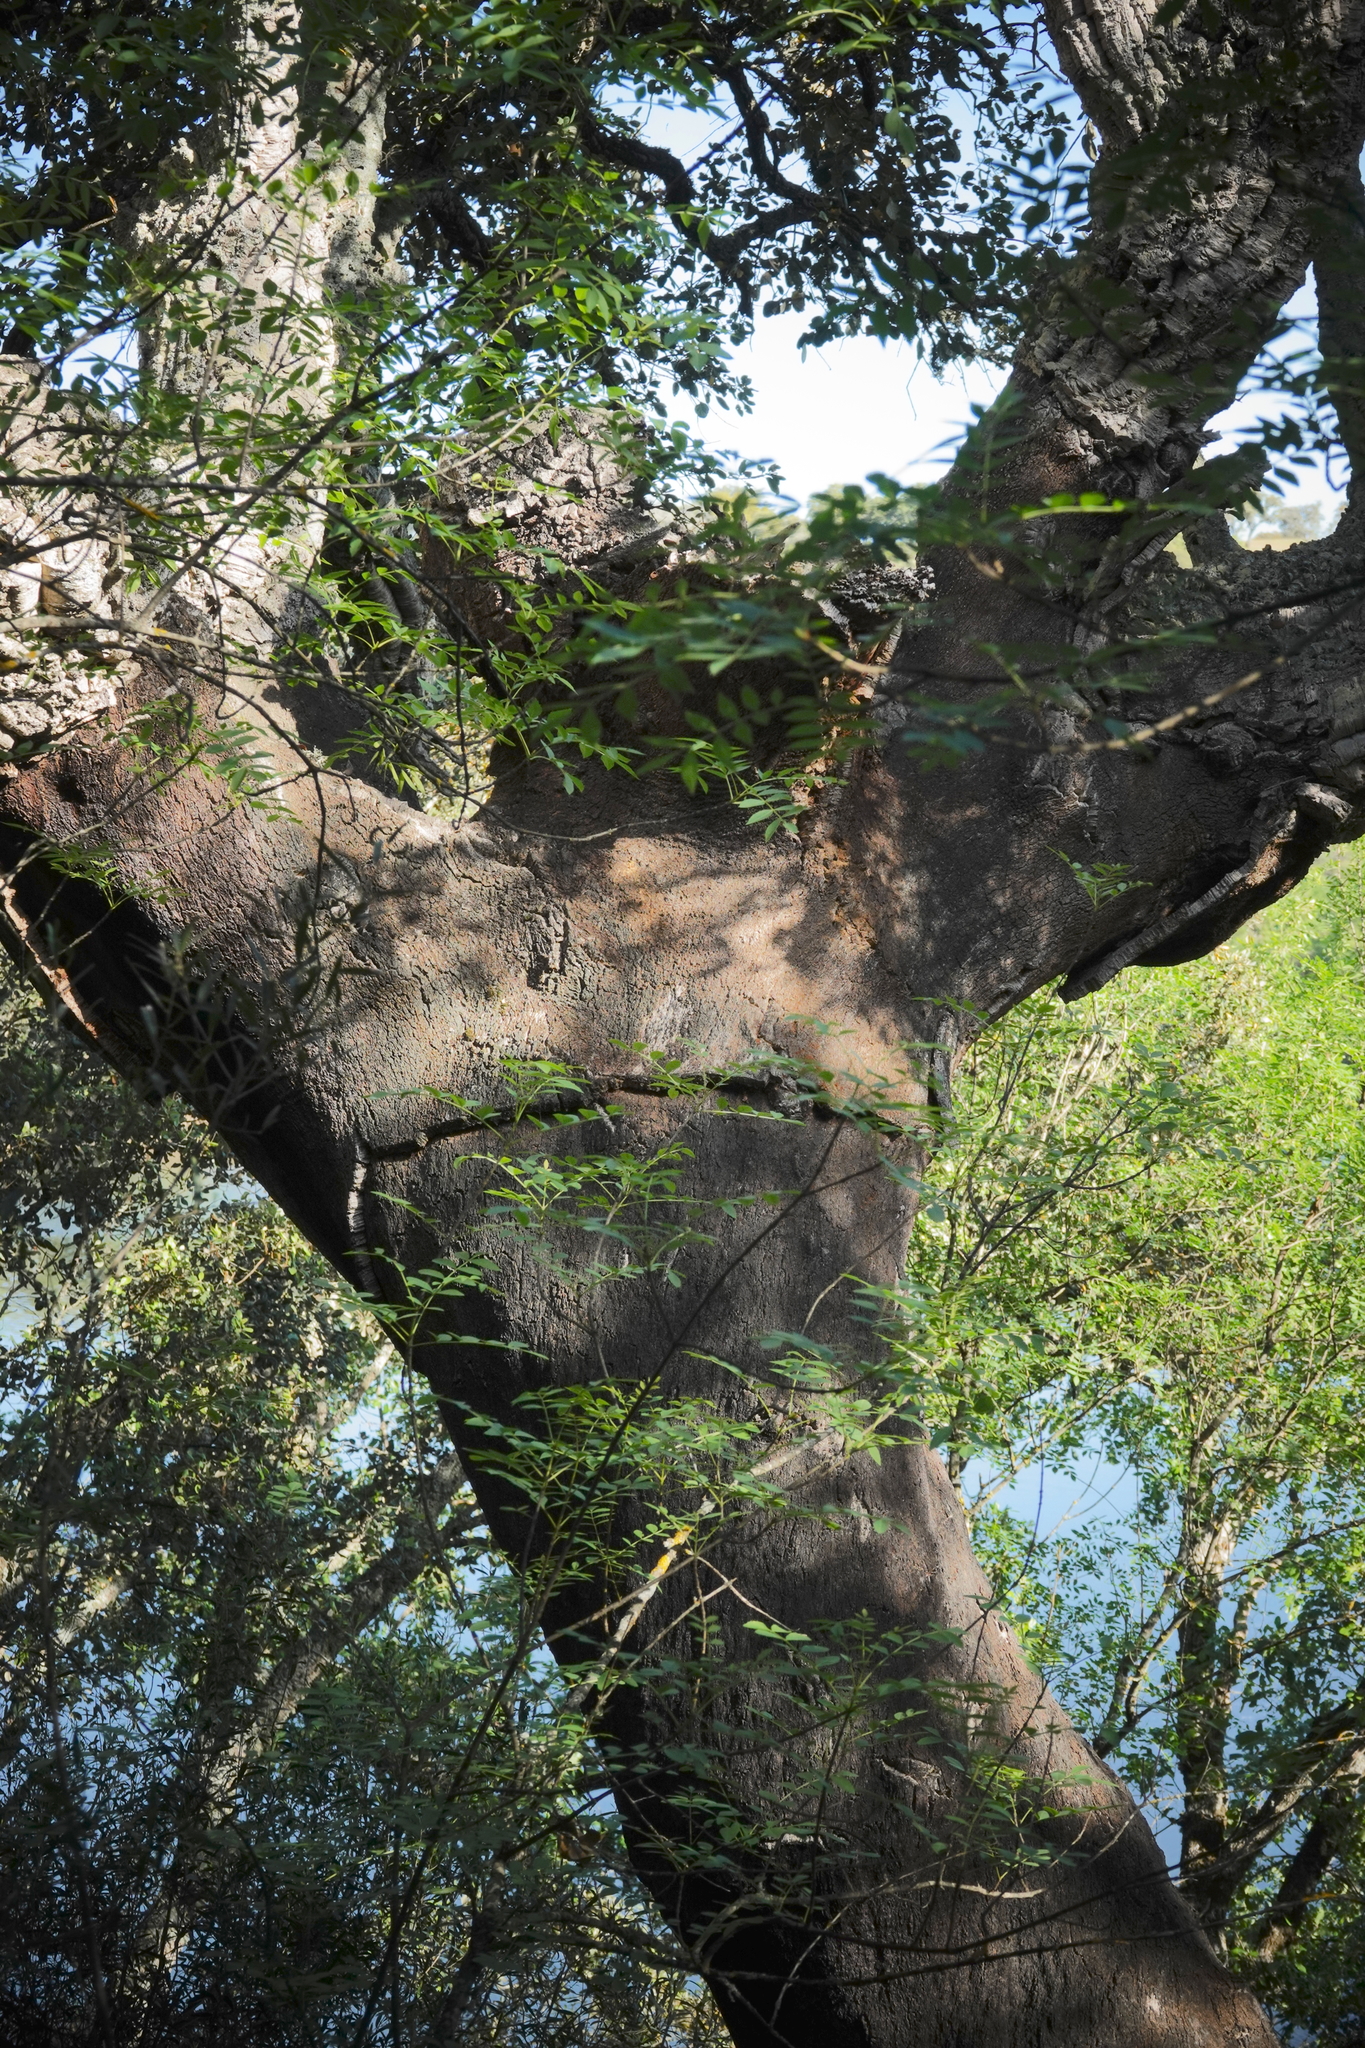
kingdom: Plantae
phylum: Tracheophyta
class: Magnoliopsida
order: Fagales
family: Fagaceae
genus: Quercus
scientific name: Quercus suber
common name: Cork oak
